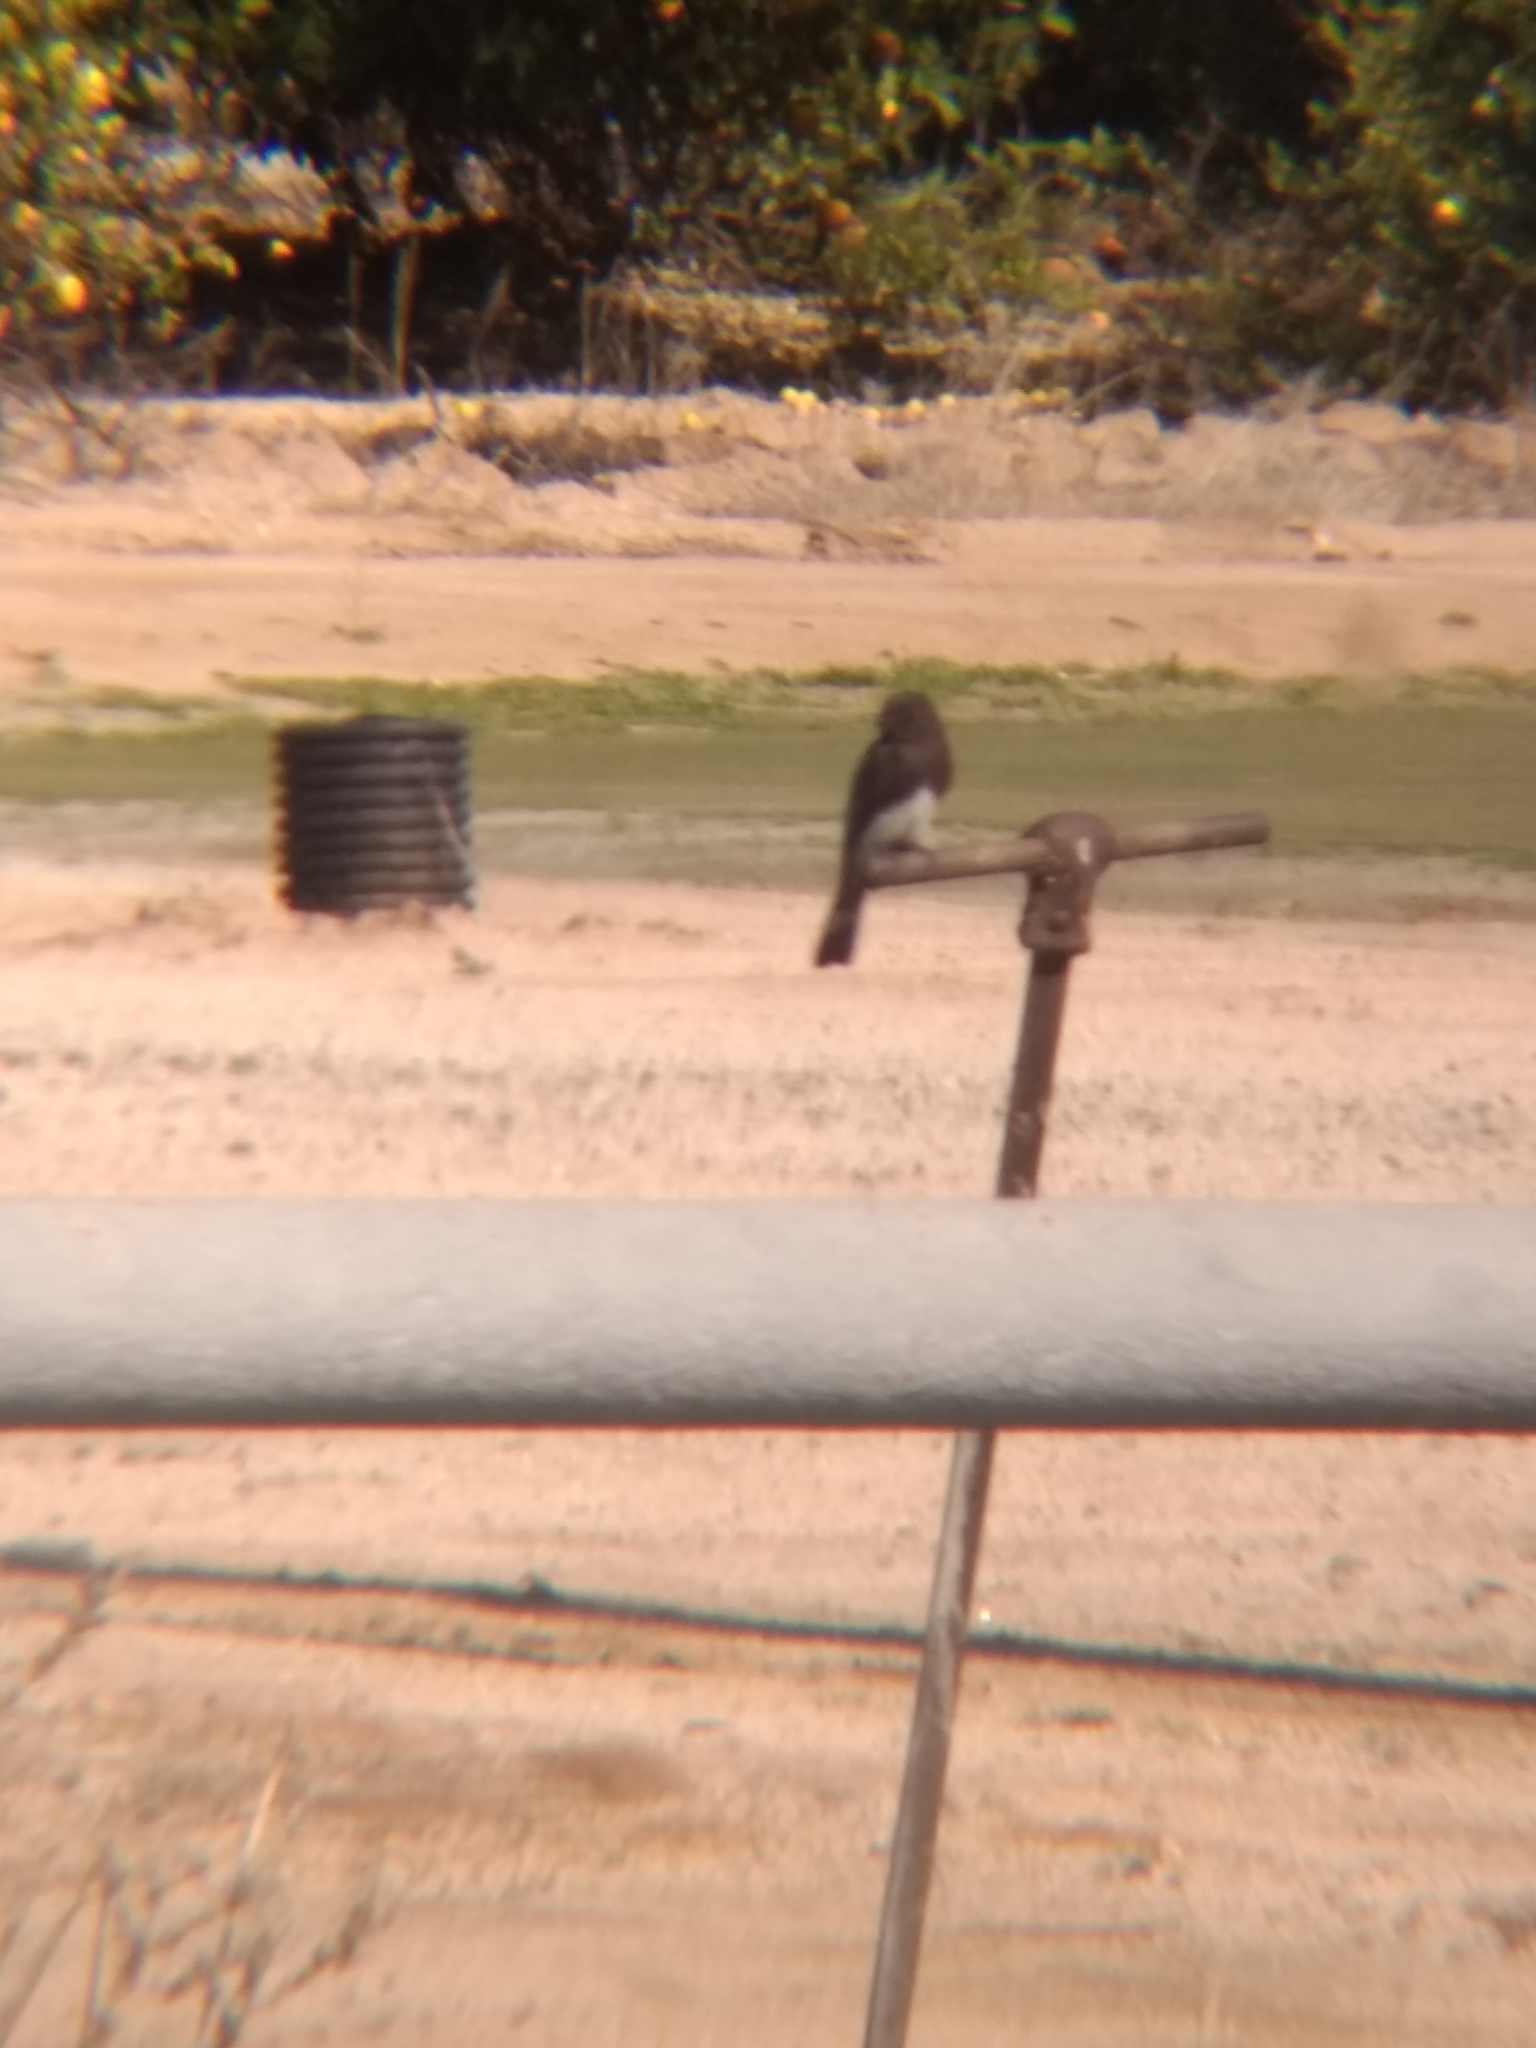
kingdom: Animalia
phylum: Chordata
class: Aves
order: Passeriformes
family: Tyrannidae
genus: Sayornis
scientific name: Sayornis nigricans
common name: Black phoebe
